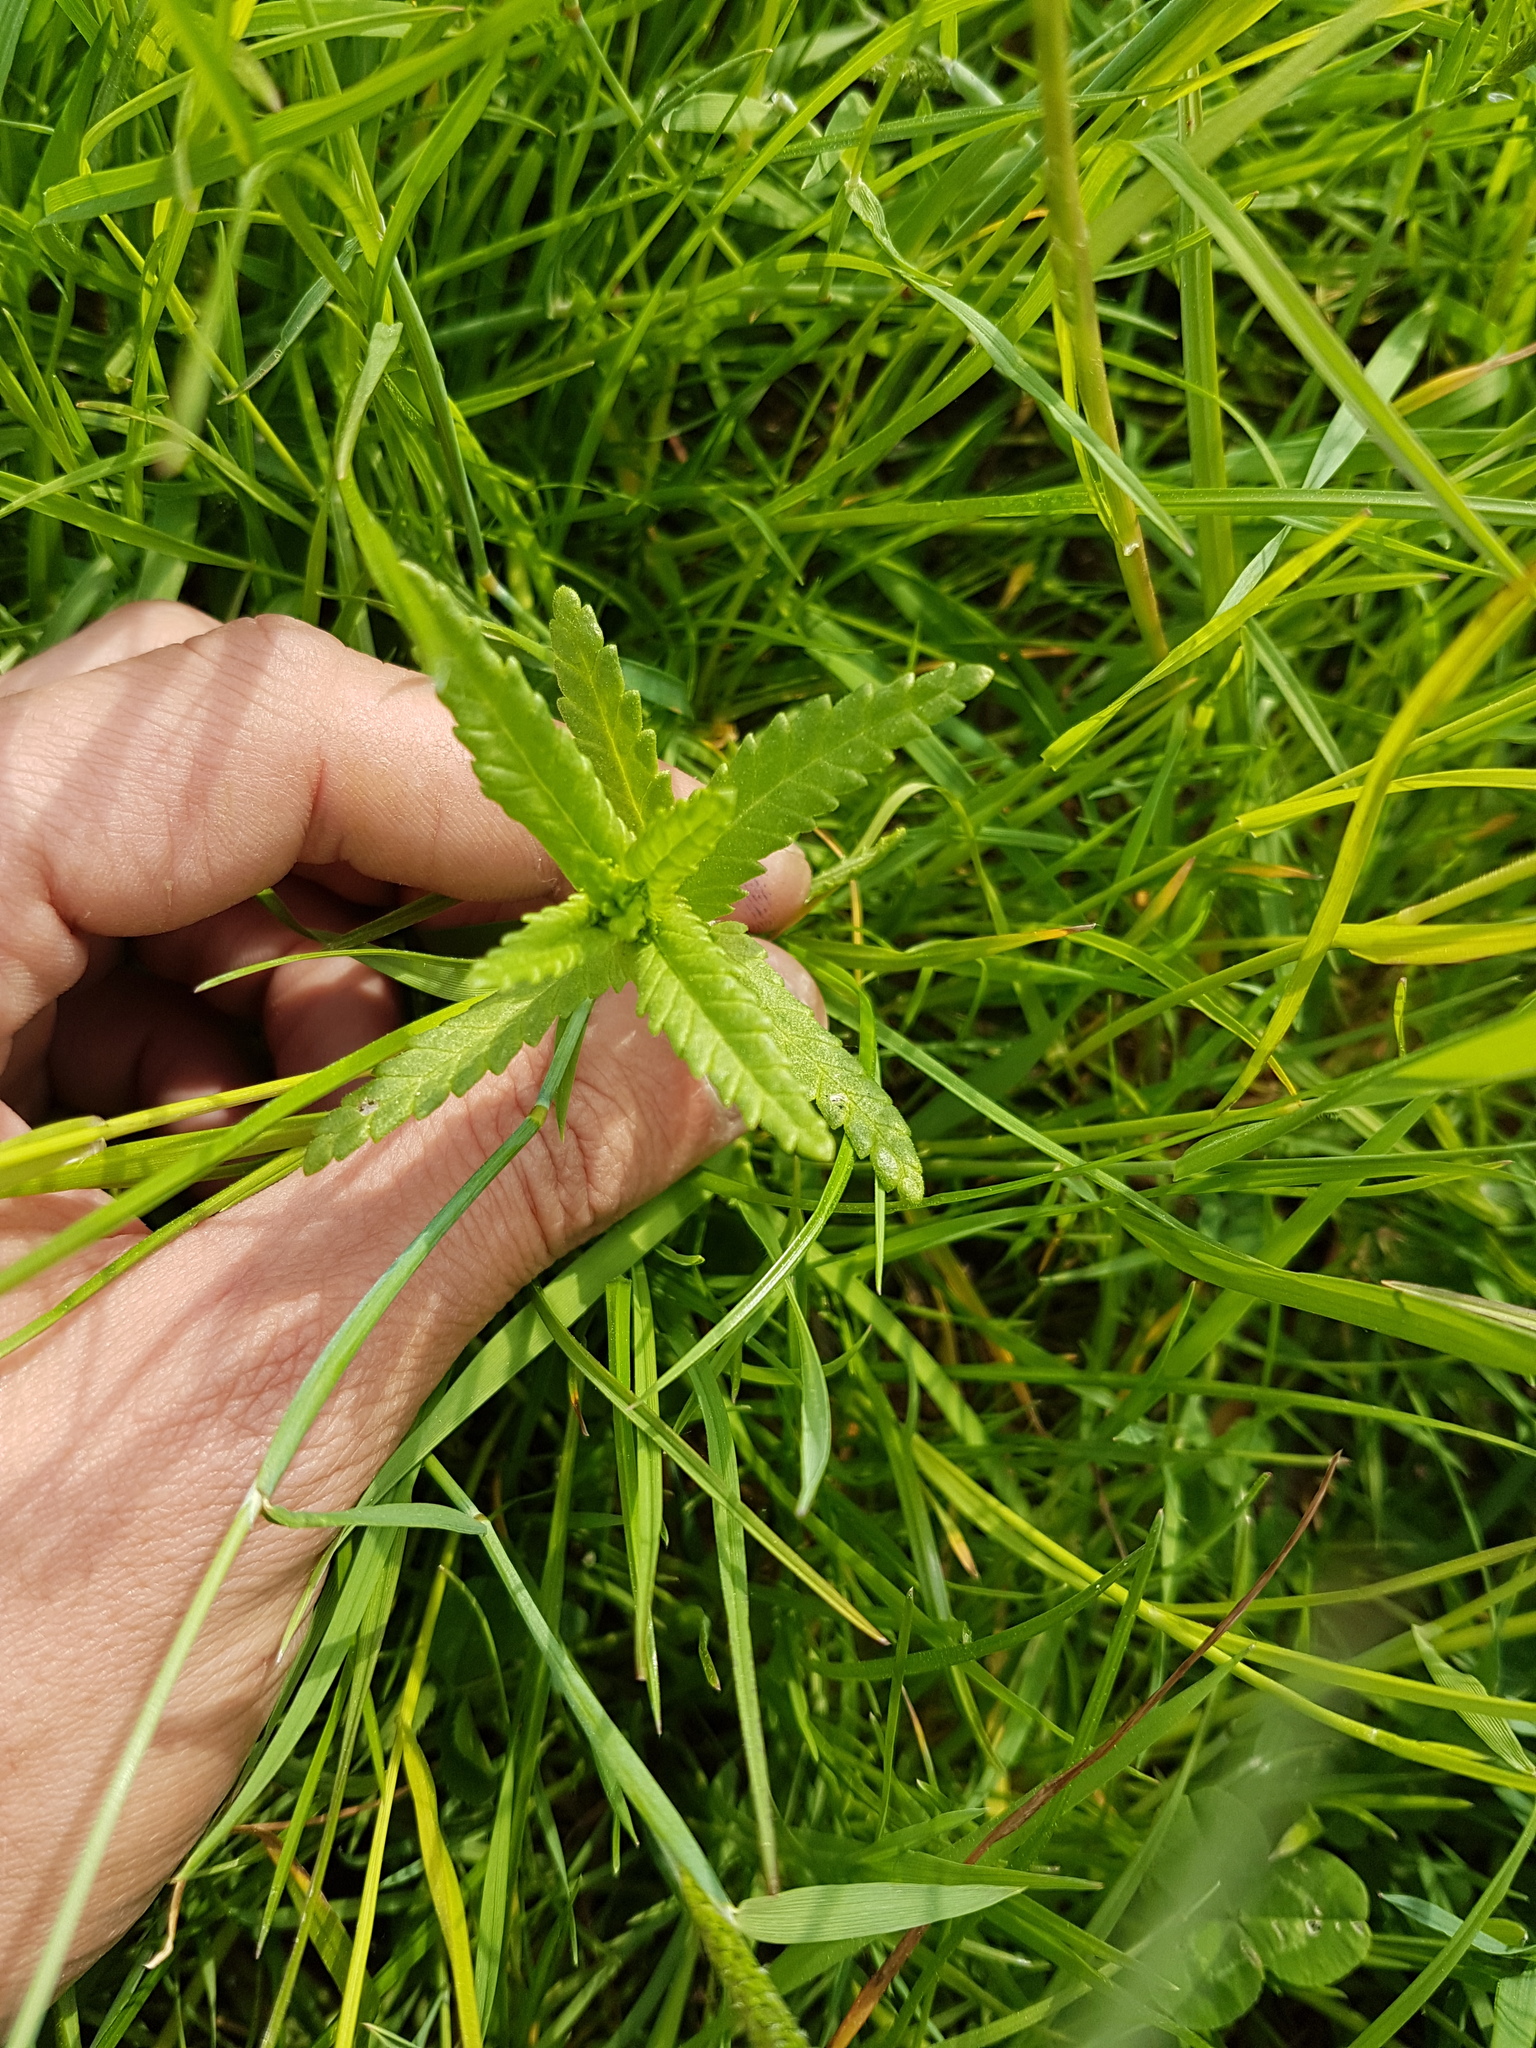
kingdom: Plantae
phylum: Tracheophyta
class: Magnoliopsida
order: Lamiales
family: Orobanchaceae
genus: Rhinanthus
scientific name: Rhinanthus serotinus
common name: Late-flowering yellow rattle
